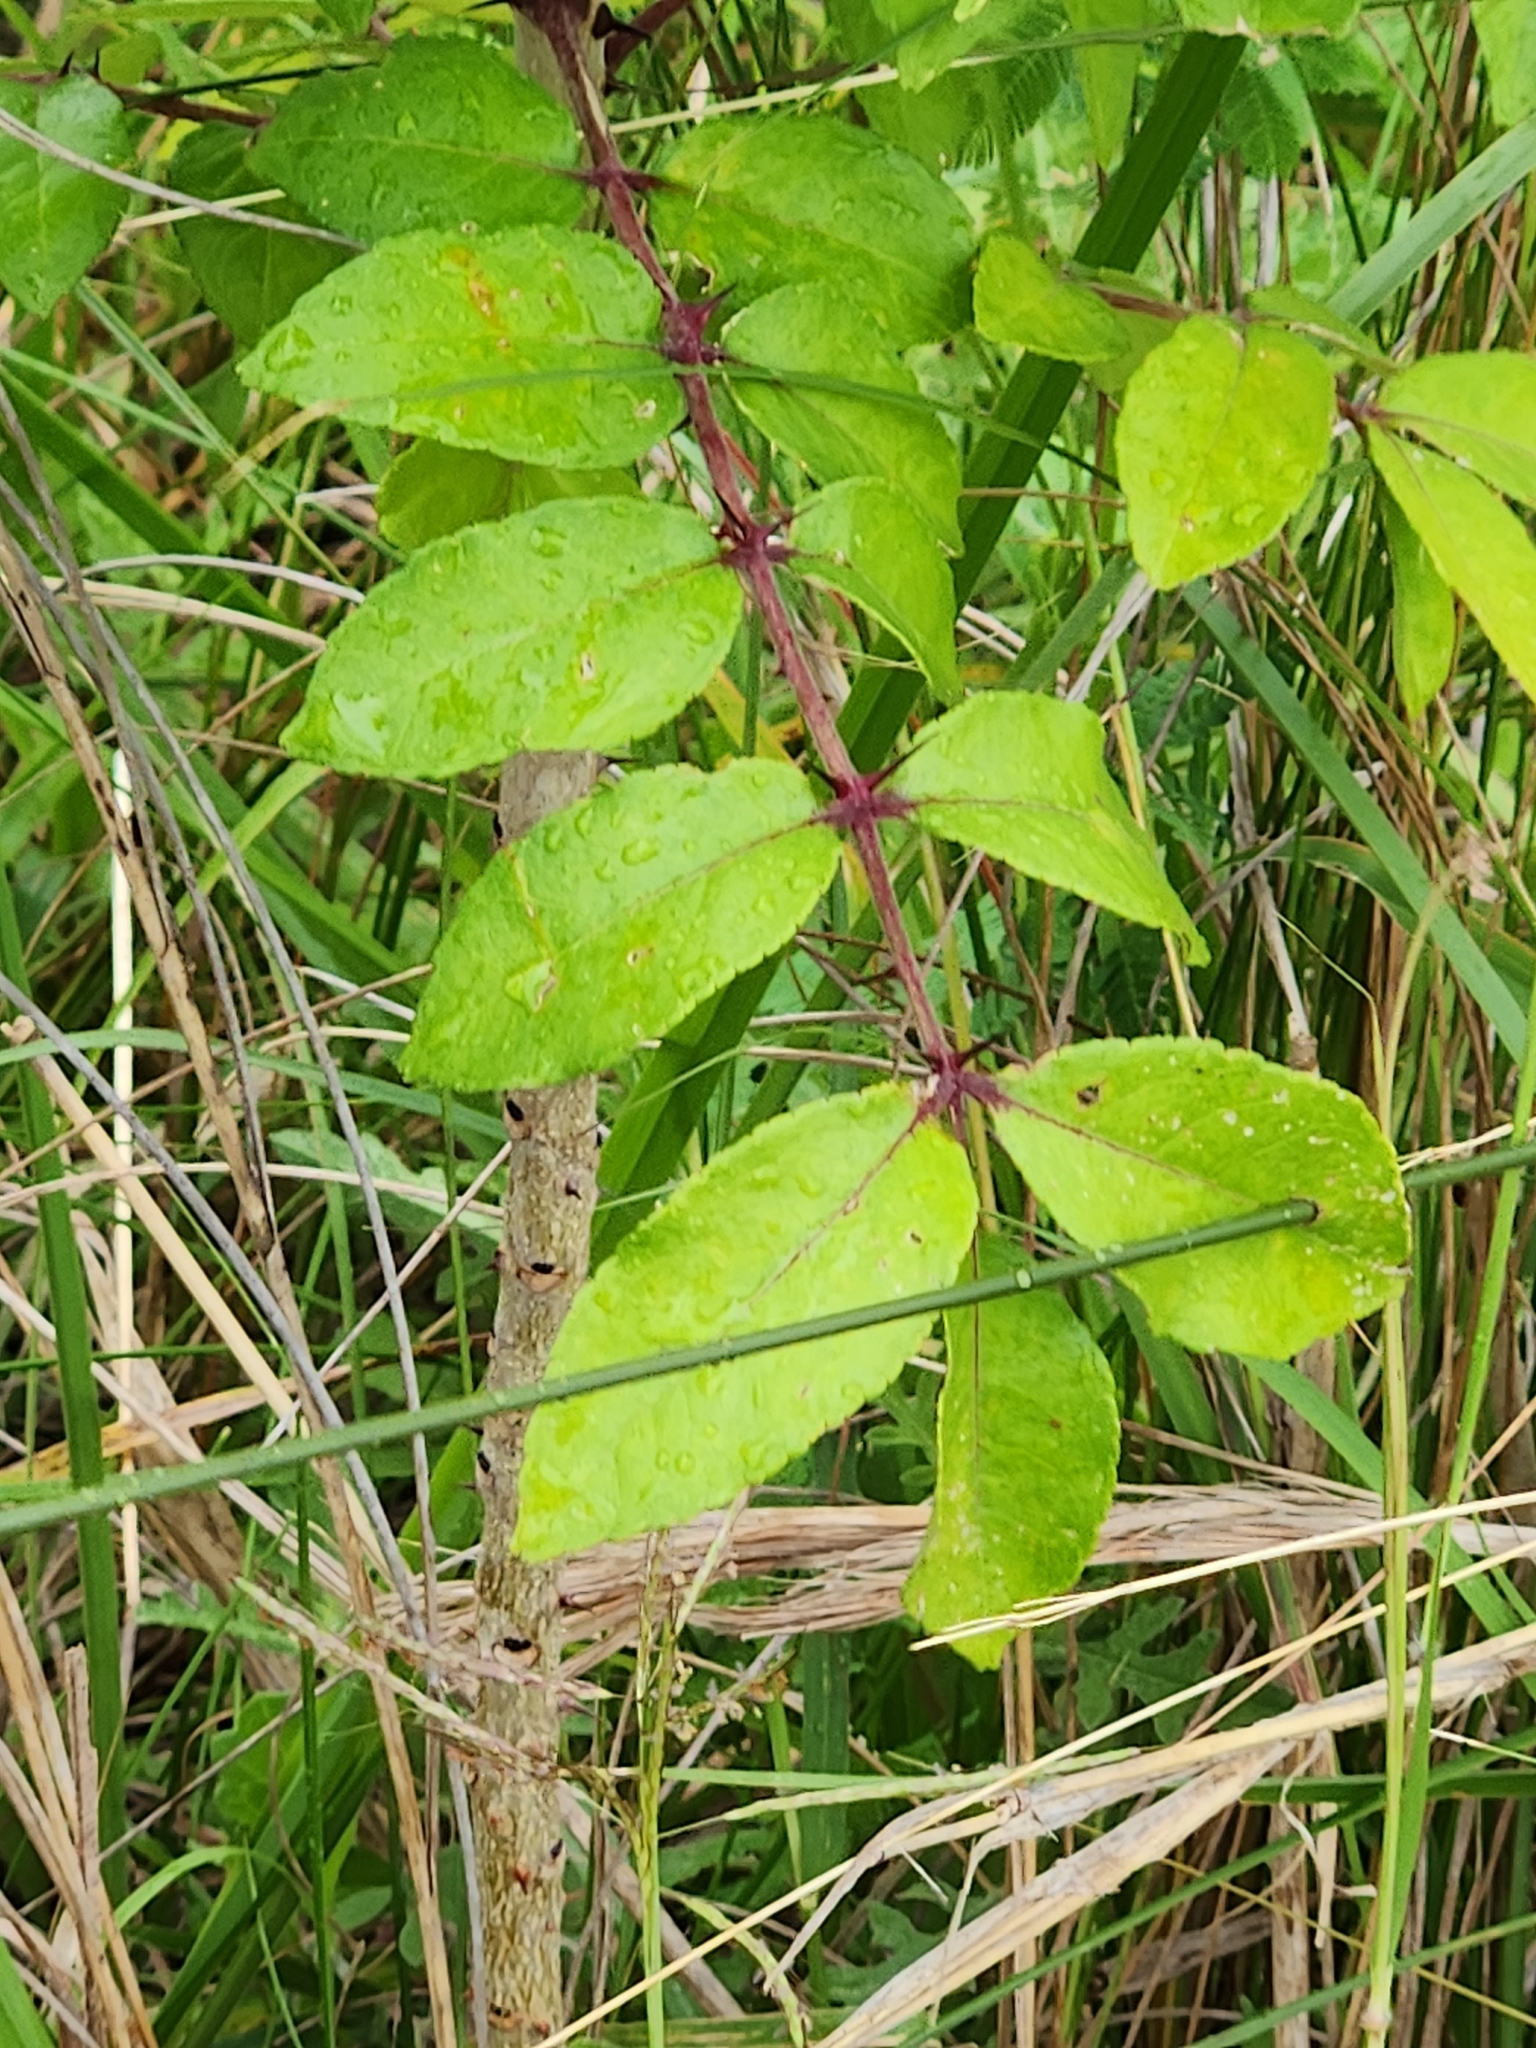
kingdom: Plantae
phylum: Tracheophyta
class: Magnoliopsida
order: Sapindales
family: Rutaceae
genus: Zanthoxylum
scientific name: Zanthoxylum clava-herculis
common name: Hercules'-club
